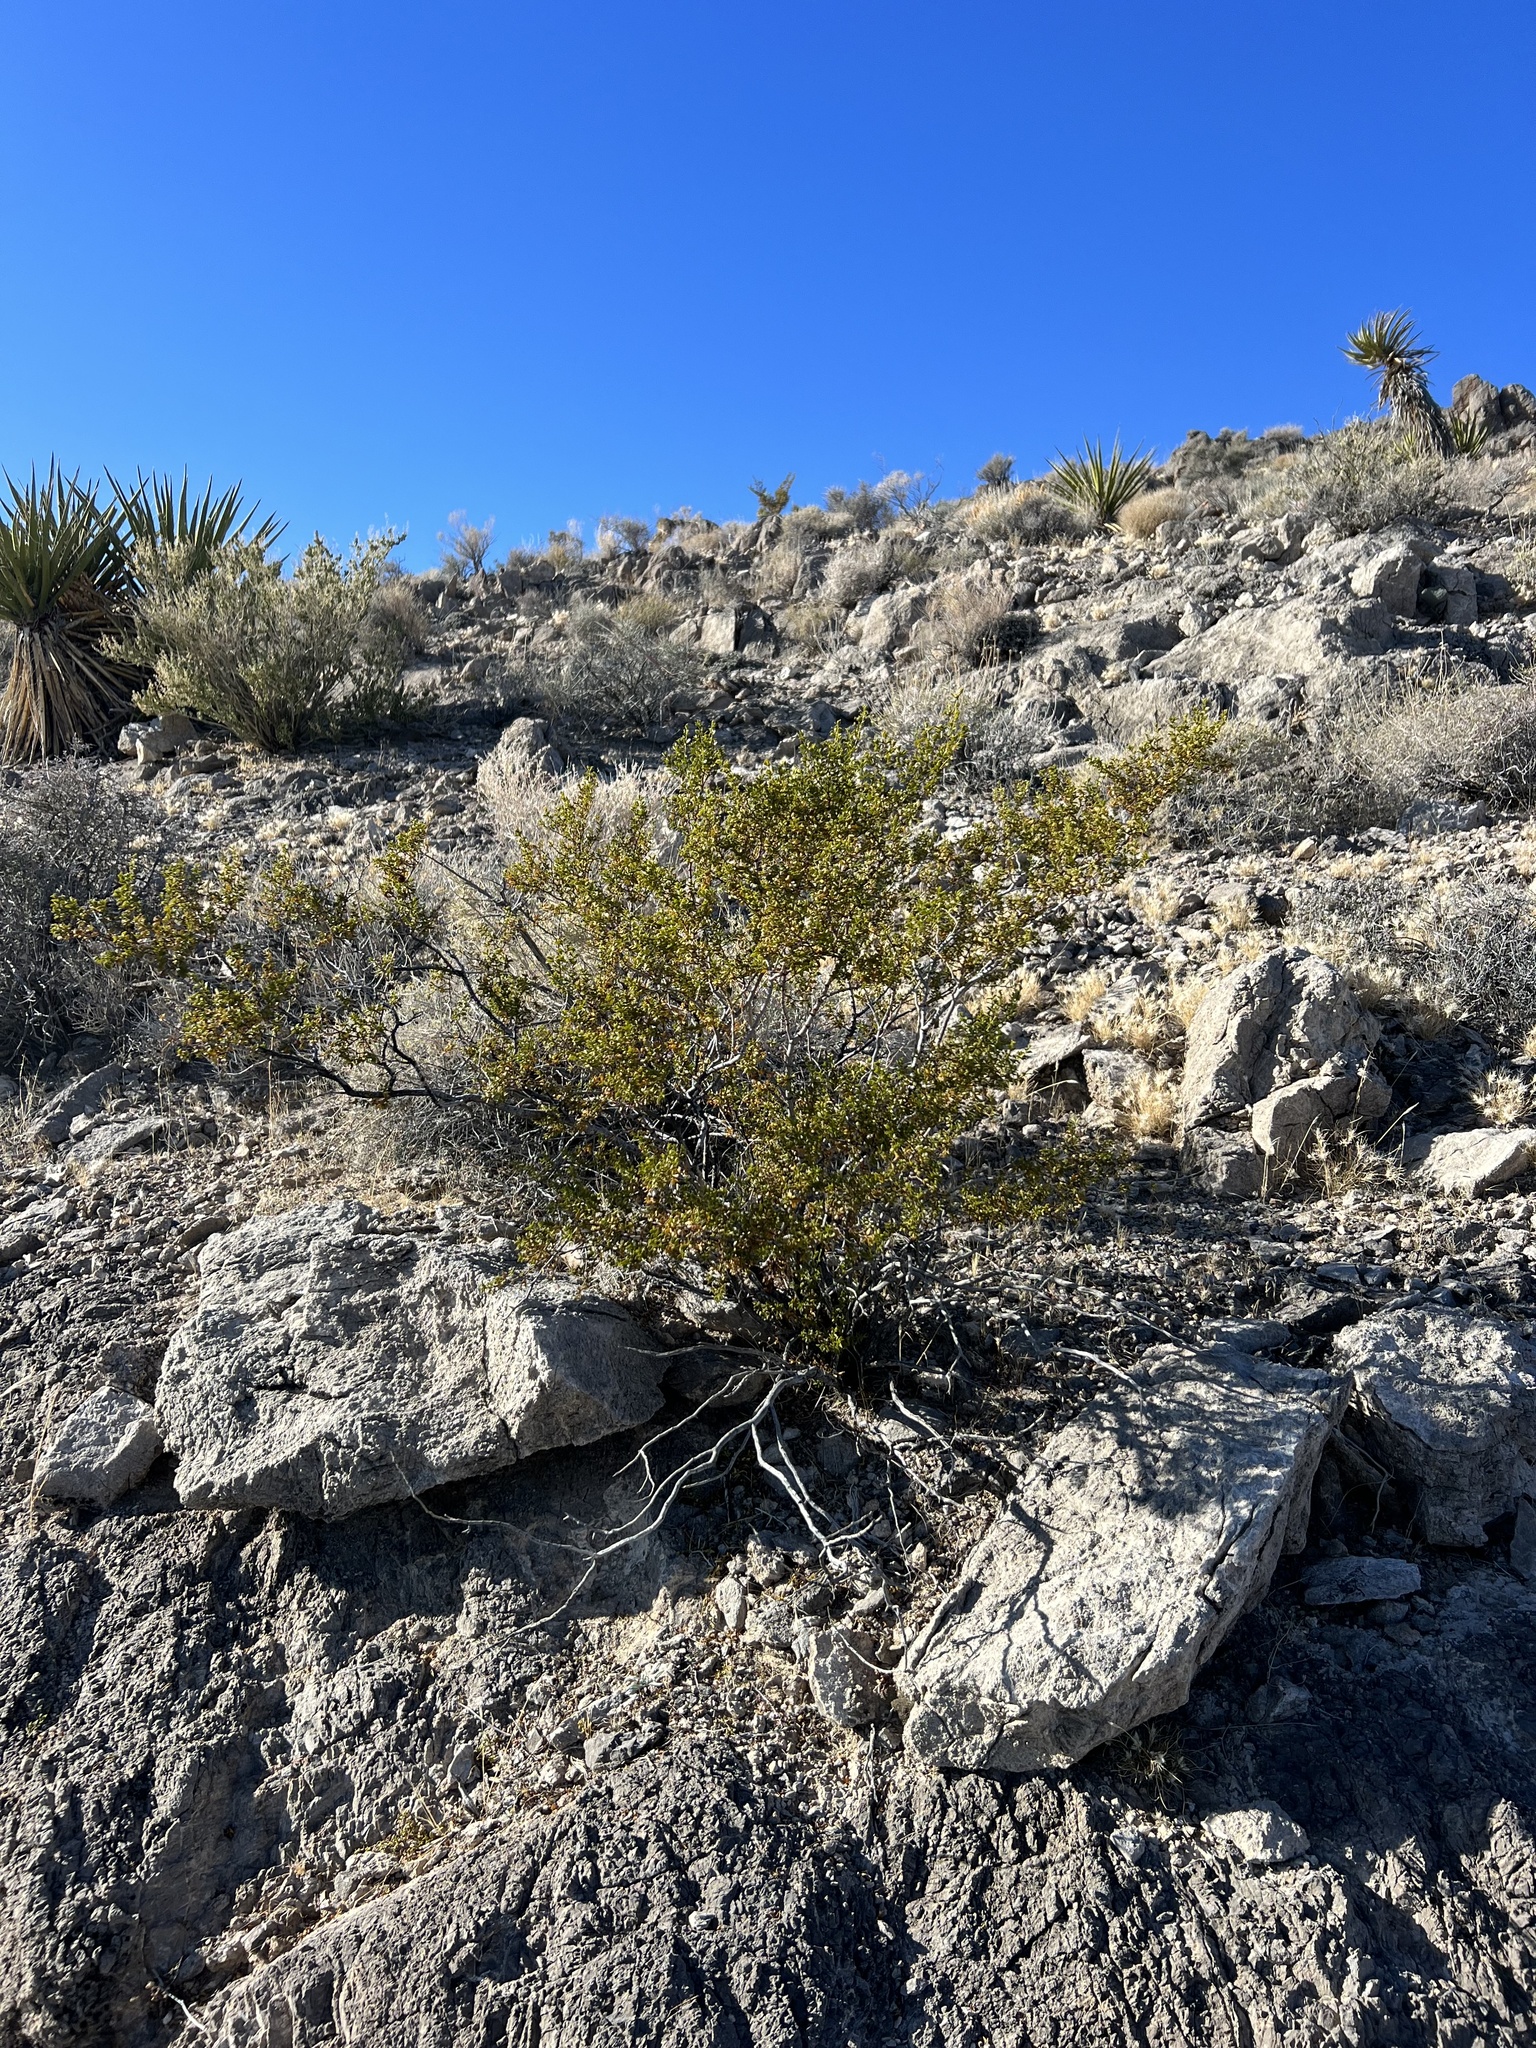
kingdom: Plantae
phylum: Tracheophyta
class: Magnoliopsida
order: Zygophyllales
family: Zygophyllaceae
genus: Larrea
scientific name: Larrea tridentata
